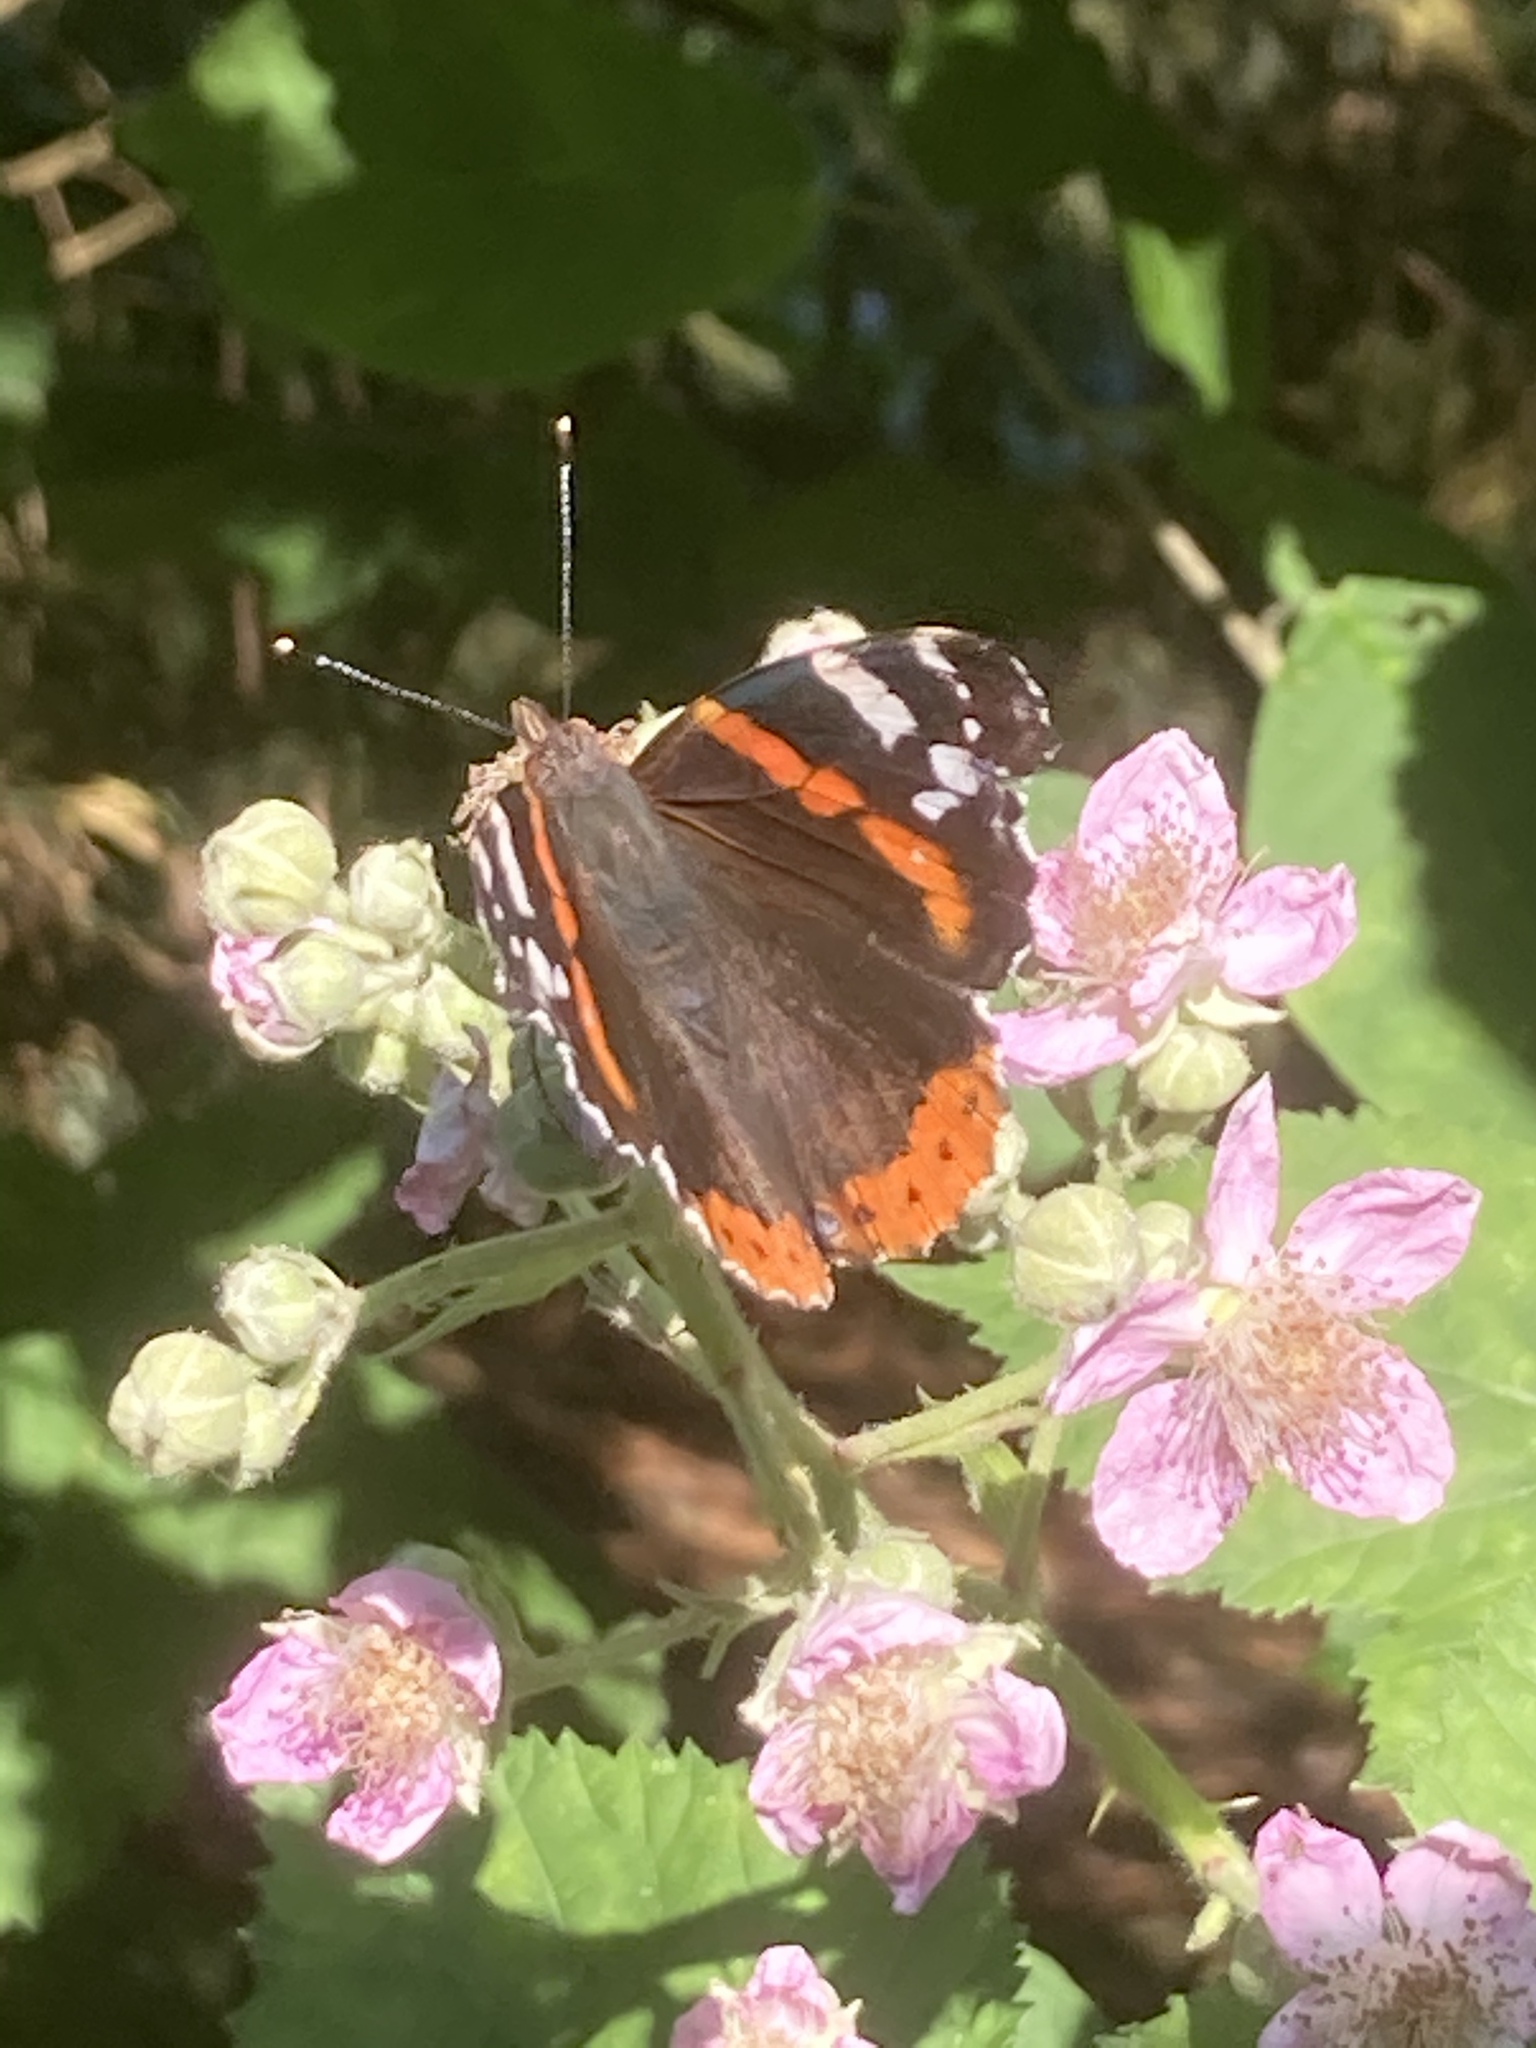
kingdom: Animalia
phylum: Arthropoda
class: Insecta
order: Lepidoptera
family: Nymphalidae
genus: Vanessa
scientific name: Vanessa atalanta
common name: Red admiral
